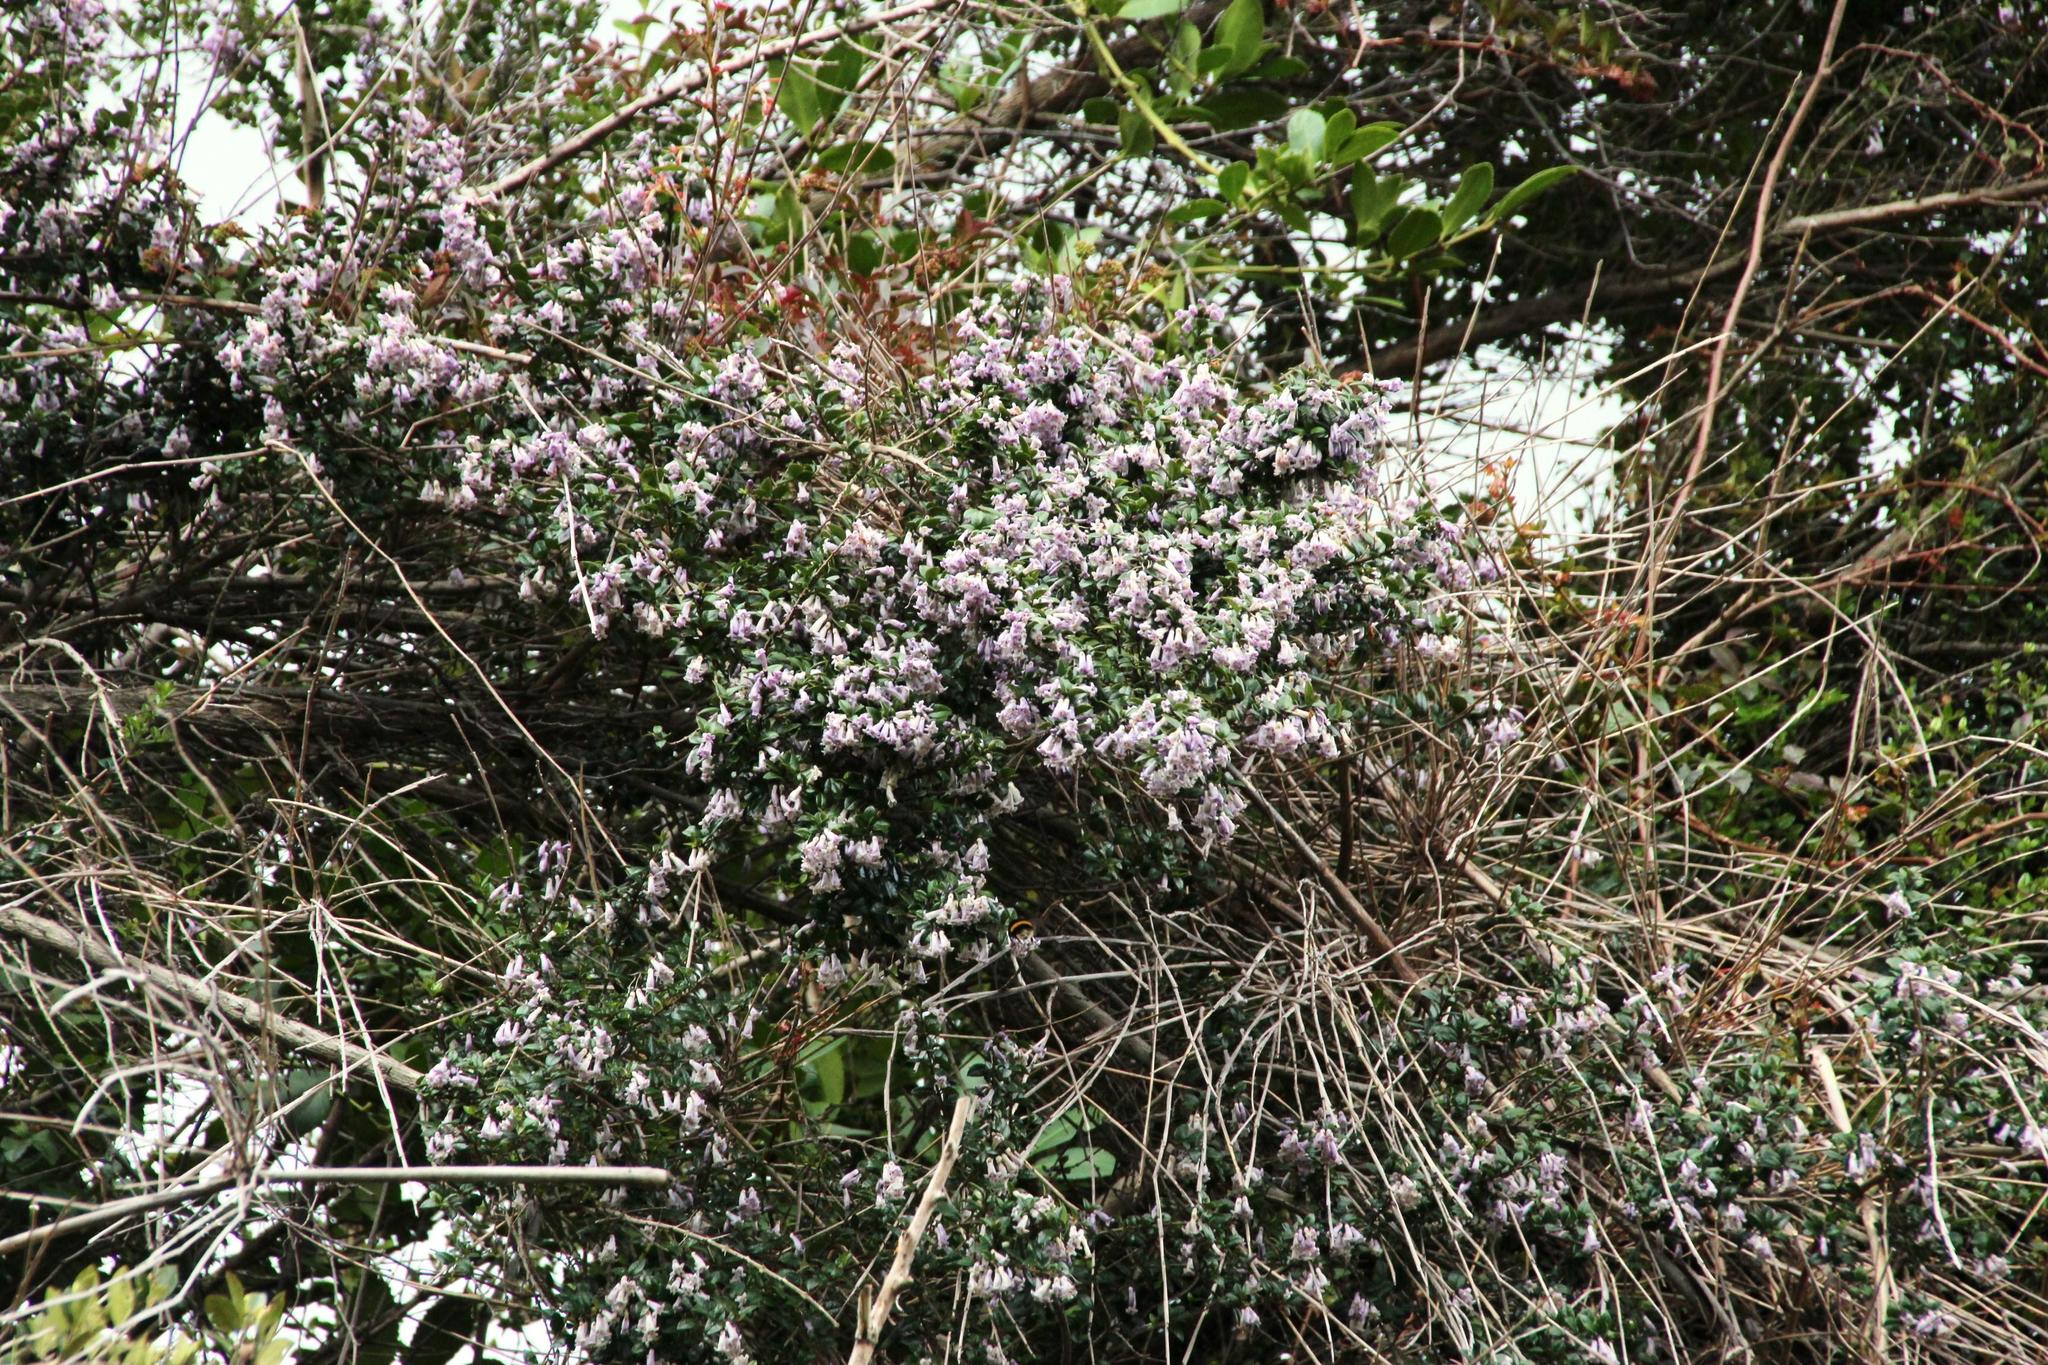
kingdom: Plantae
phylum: Tracheophyta
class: Magnoliopsida
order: Lamiales
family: Verbenaceae
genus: Rhaphithamnus
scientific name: Rhaphithamnus spinosus
